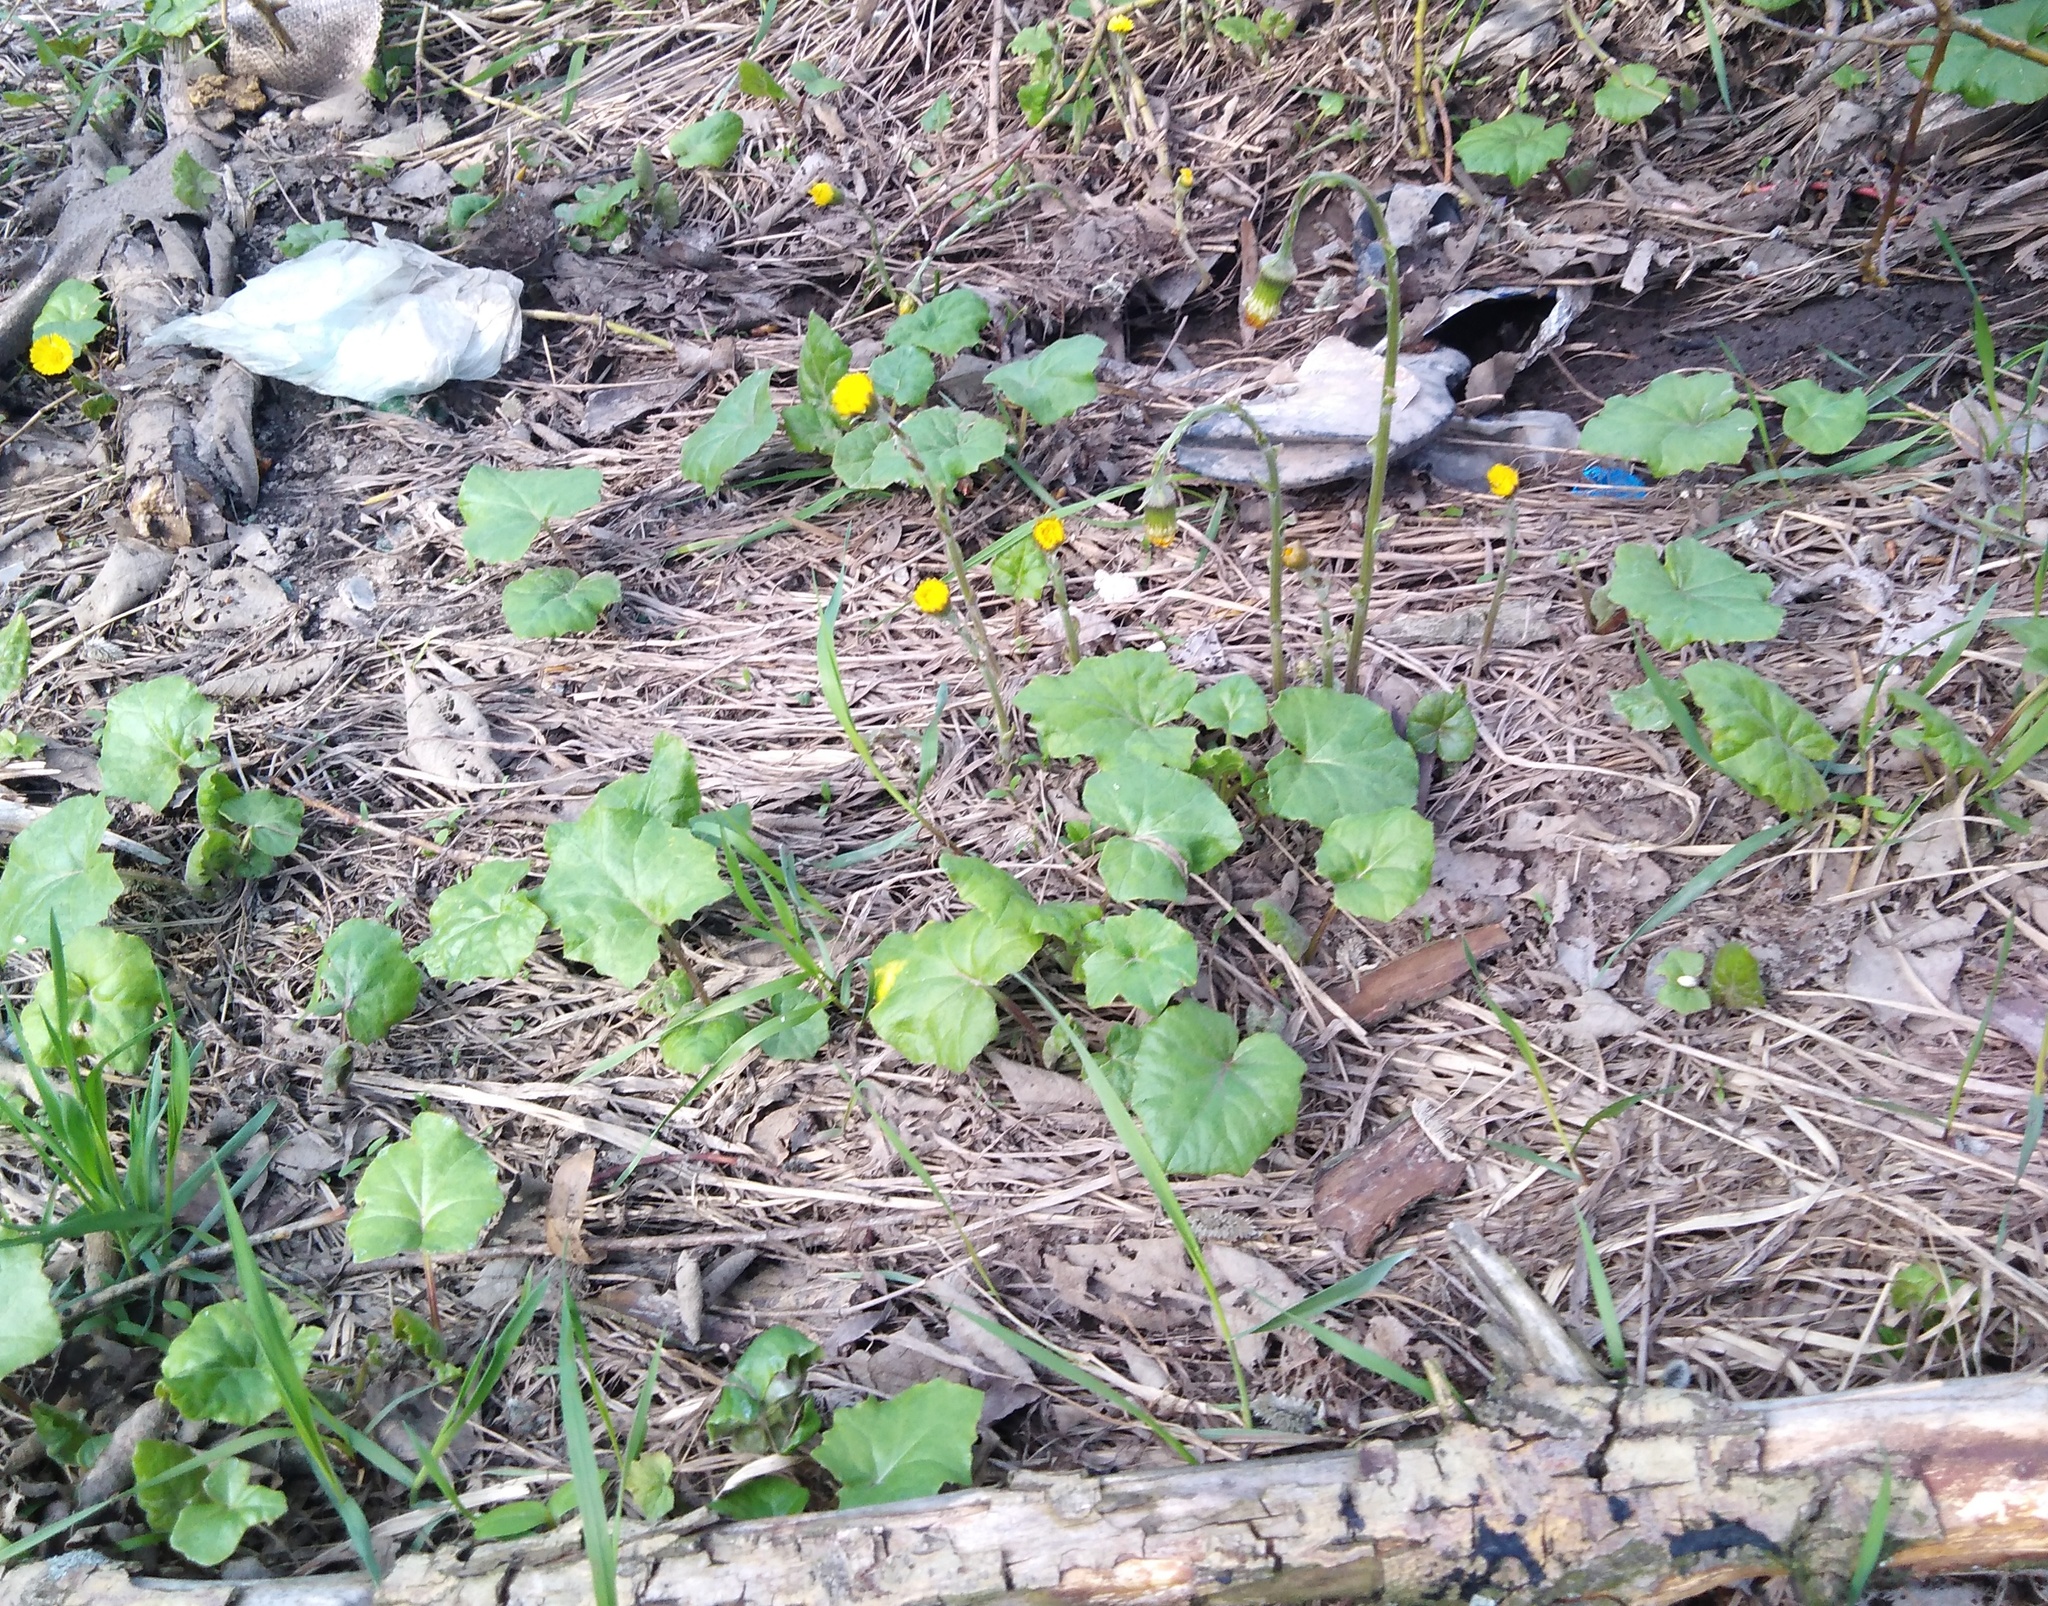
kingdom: Plantae
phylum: Tracheophyta
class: Magnoliopsida
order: Asterales
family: Asteraceae
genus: Tussilago
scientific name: Tussilago farfara
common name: Coltsfoot
